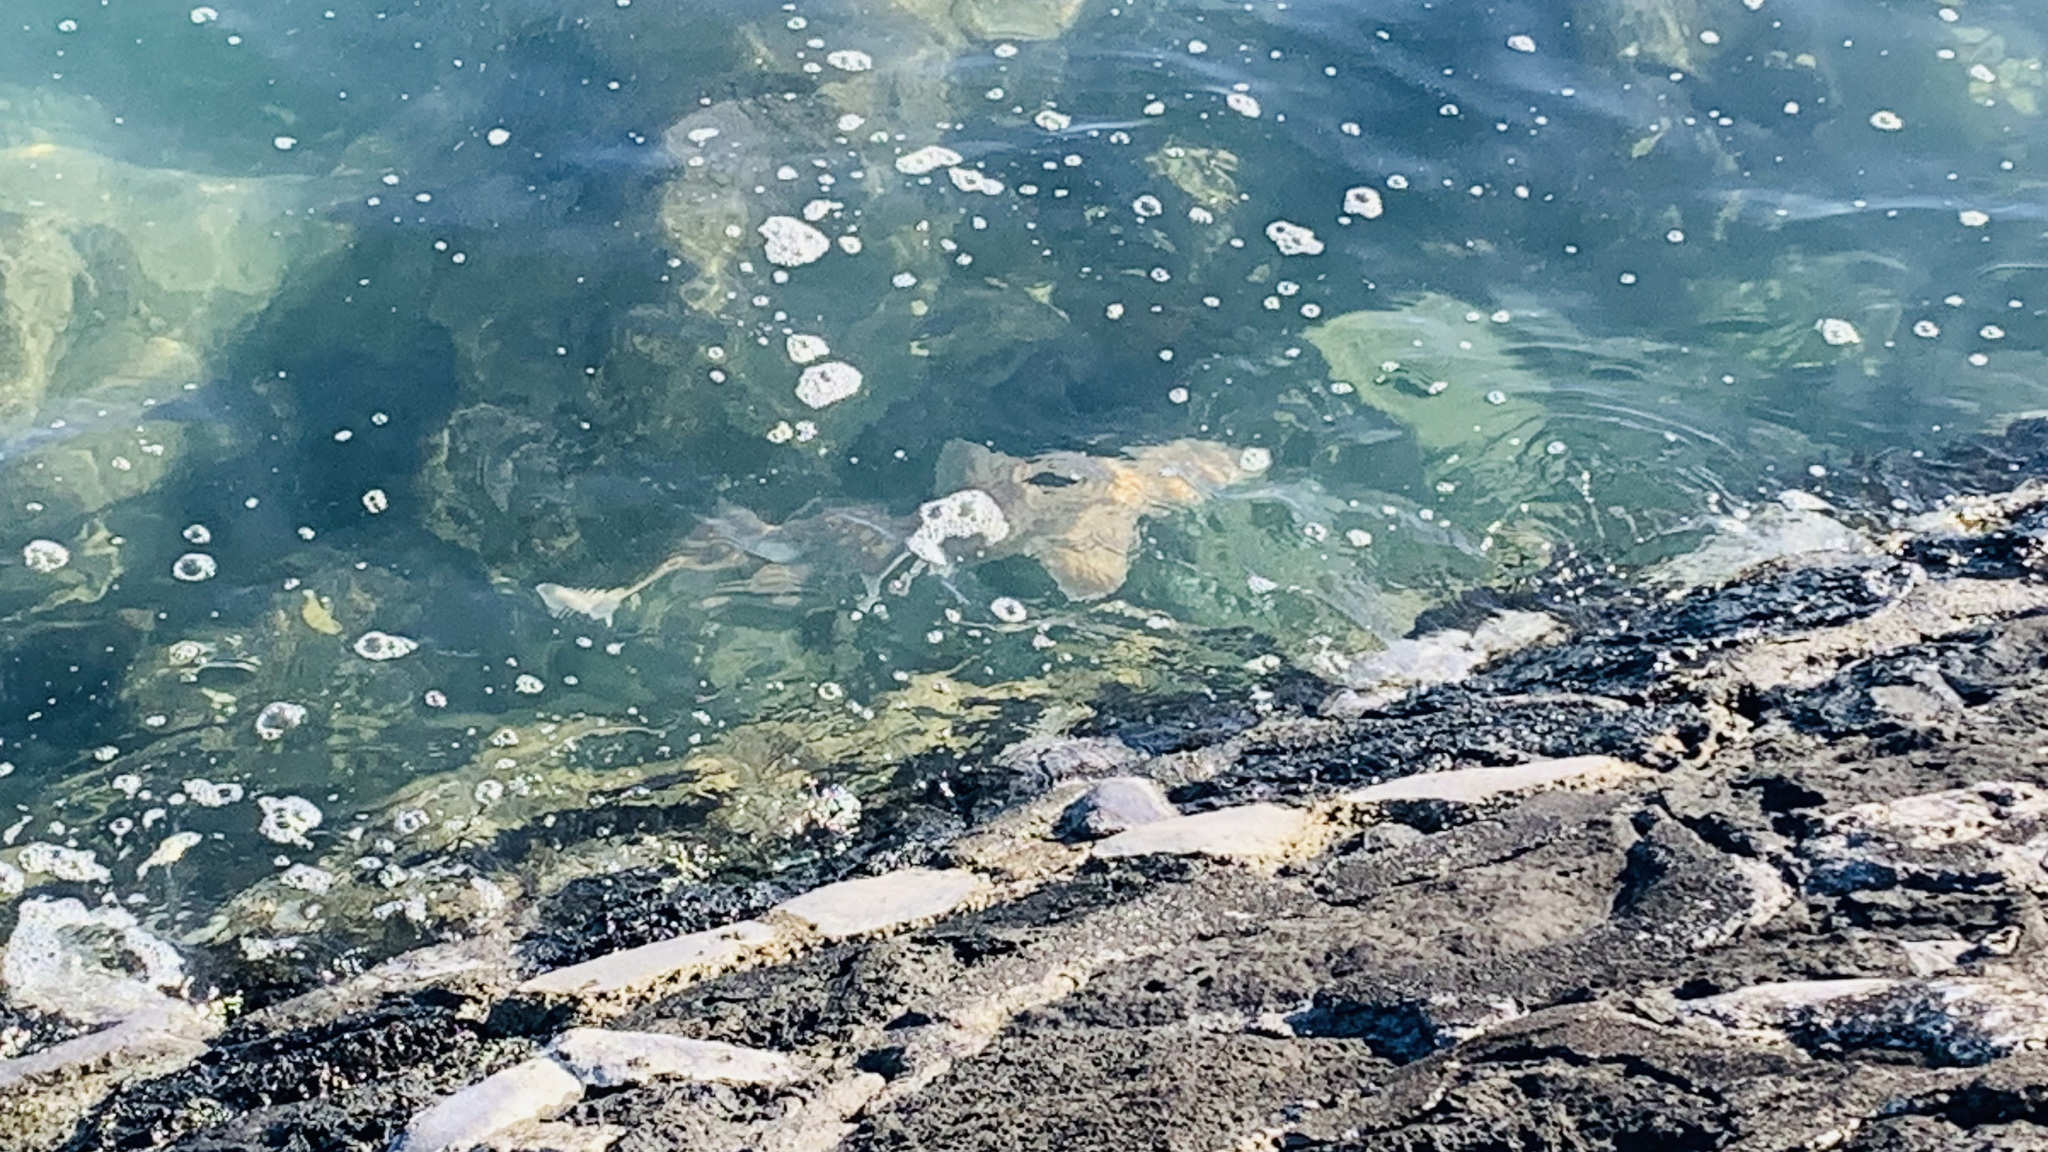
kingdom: Animalia
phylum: Chordata
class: Elasmobranchii
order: Carcharhiniformes
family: Triakidae
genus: Mustelus
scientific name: Mustelus lenticulatus
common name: Gummy shark
